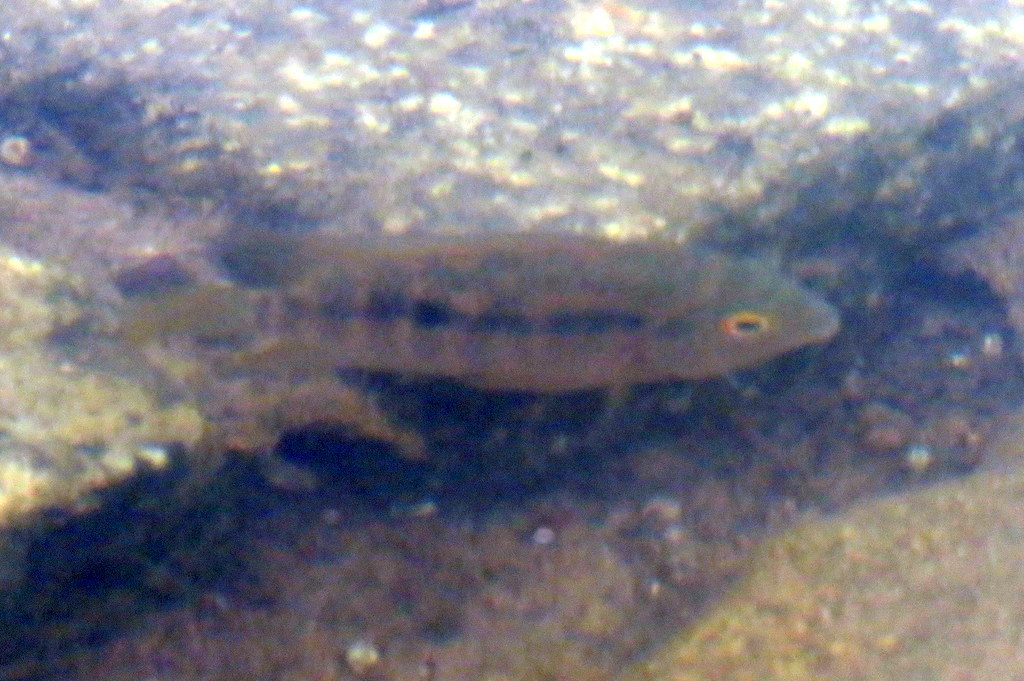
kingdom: Animalia
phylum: Chordata
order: Perciformes
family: Cichlidae
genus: Australoheros
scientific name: Australoheros facetus
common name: Chameleon cichlid
